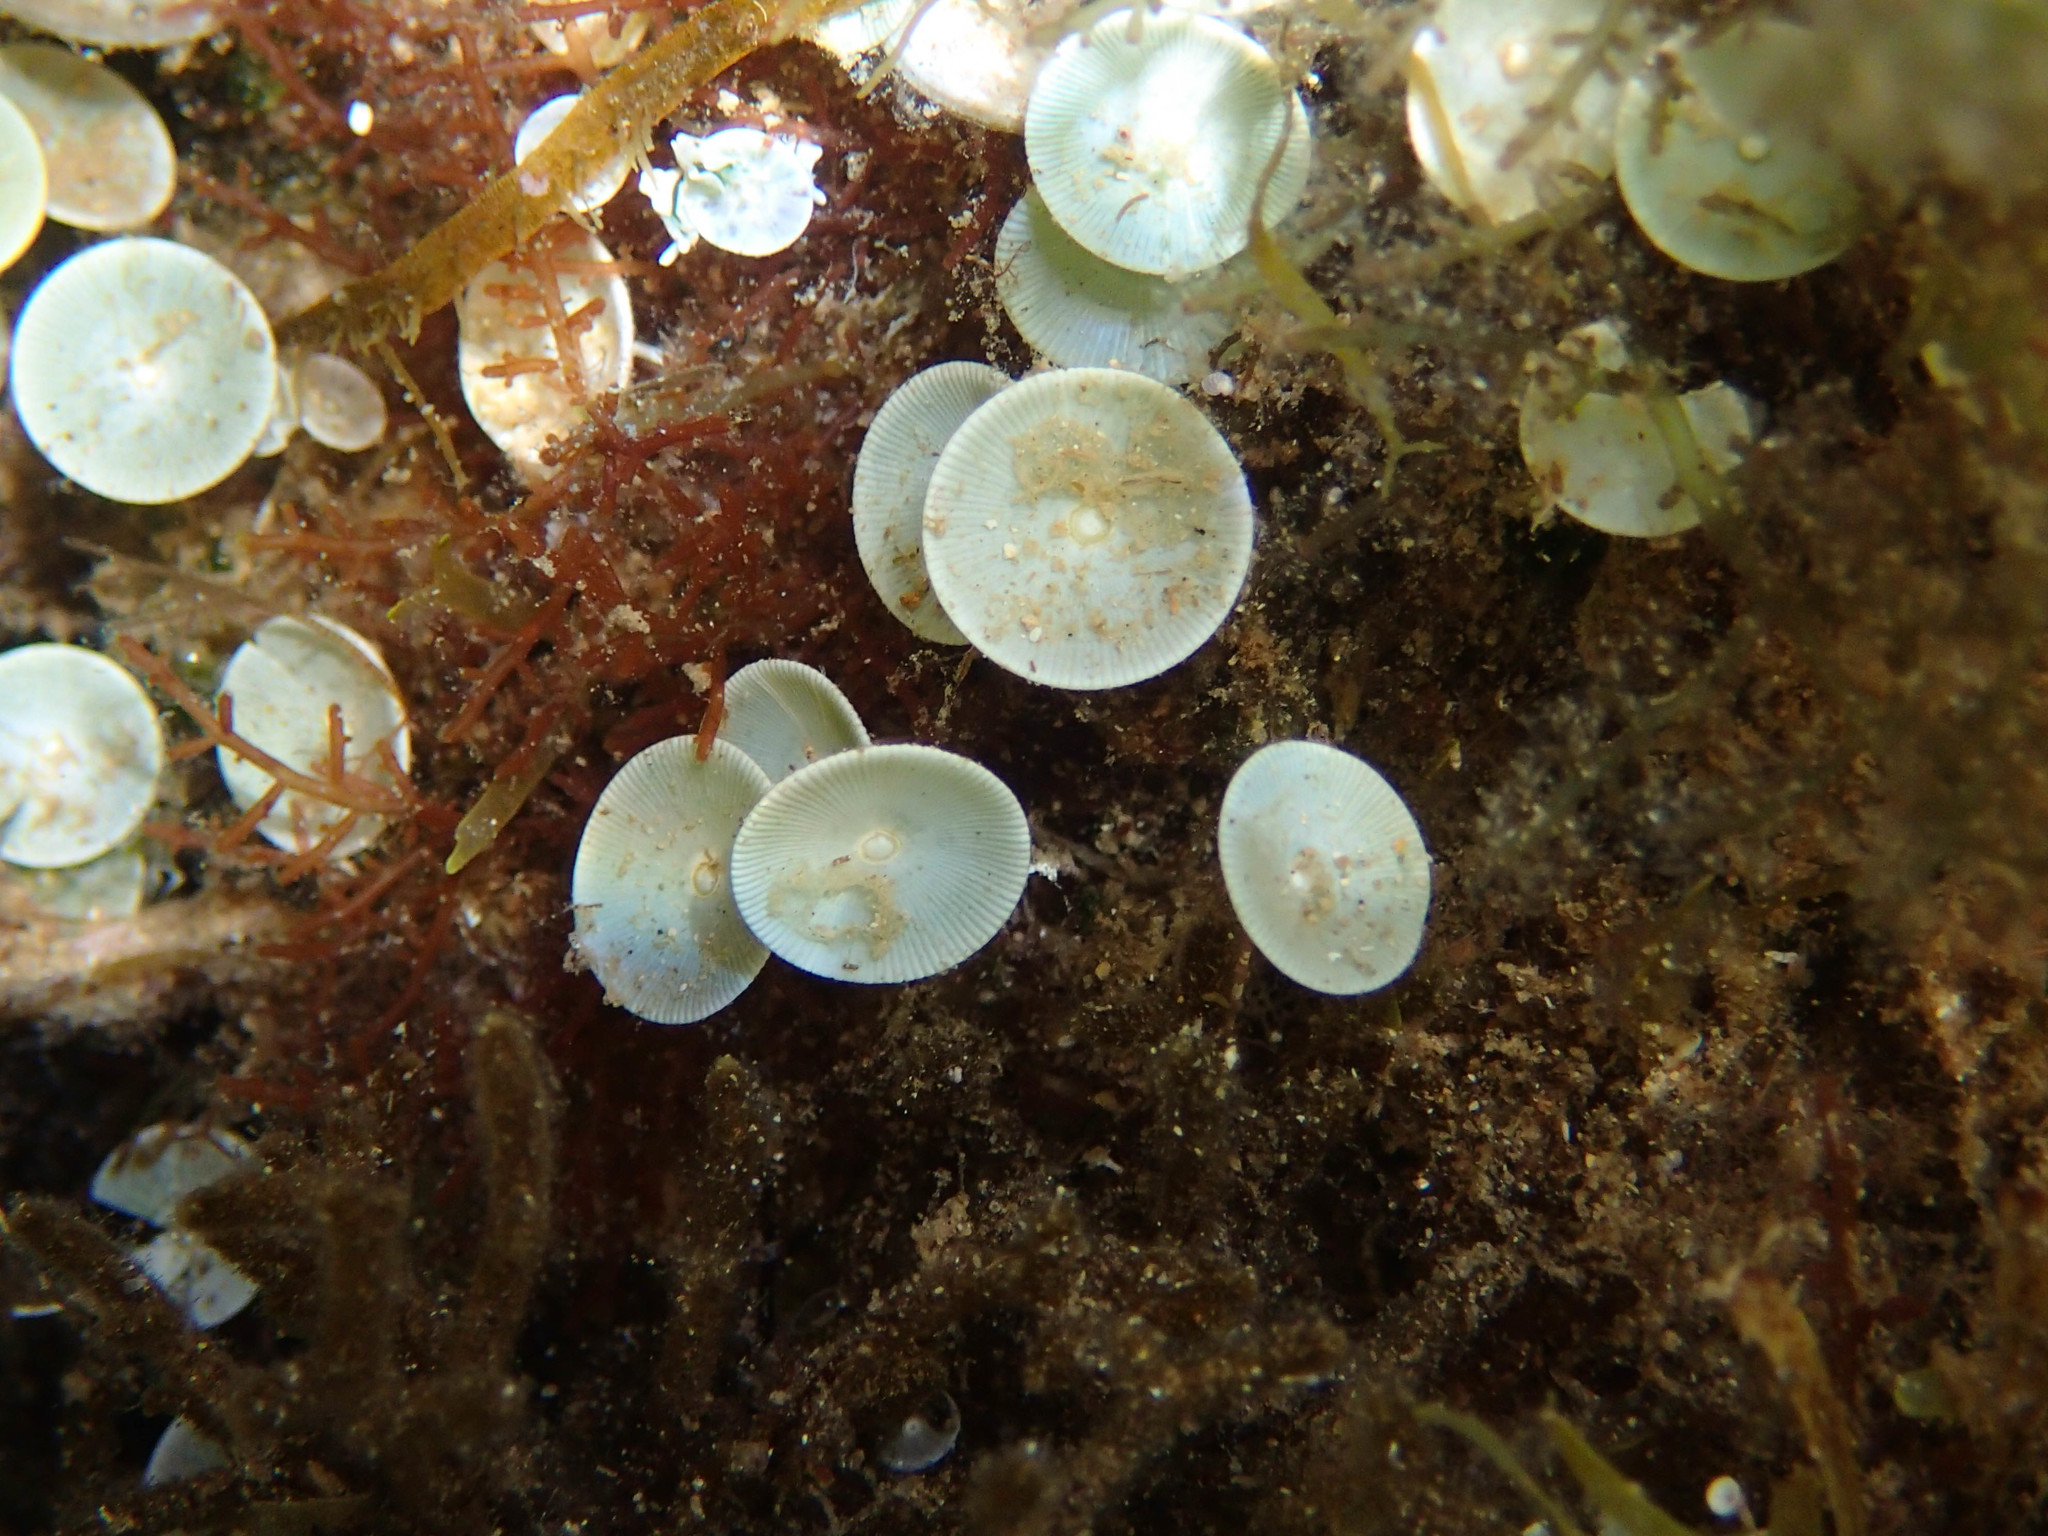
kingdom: Plantae
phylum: Chlorophyta
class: Ulvophyceae
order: Dasycladales
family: Polyphysaceae
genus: Acetabularia
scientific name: Acetabularia acetabulum
